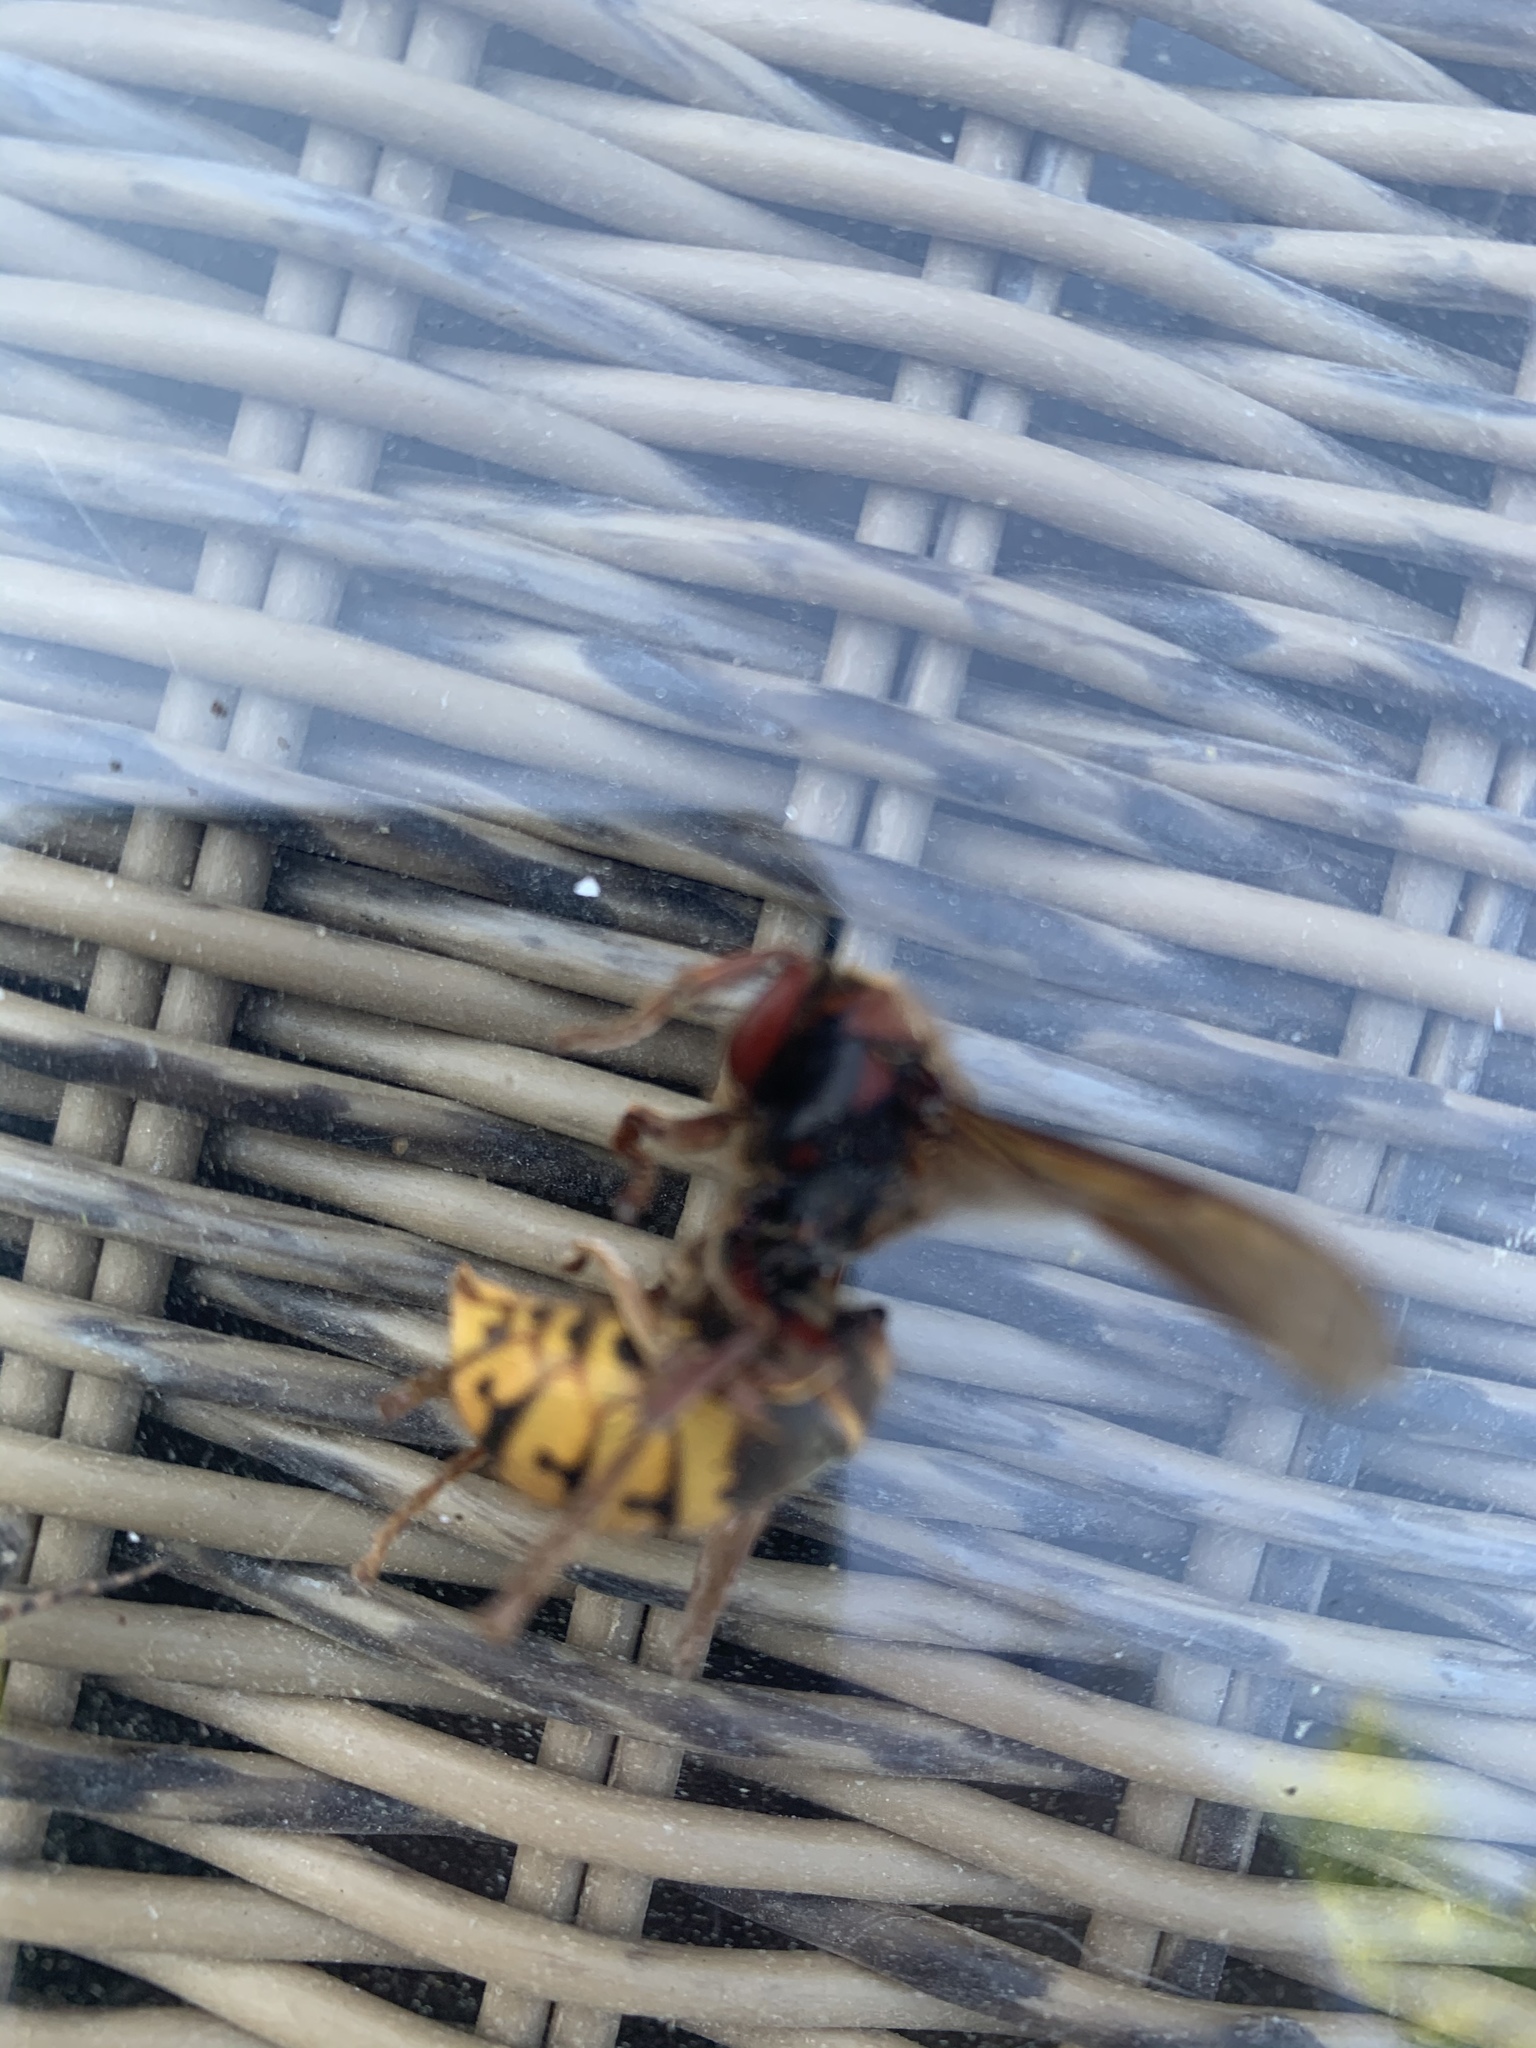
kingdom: Animalia
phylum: Arthropoda
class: Insecta
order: Hymenoptera
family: Vespidae
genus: Vespa
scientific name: Vespa crabro
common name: Hornet
